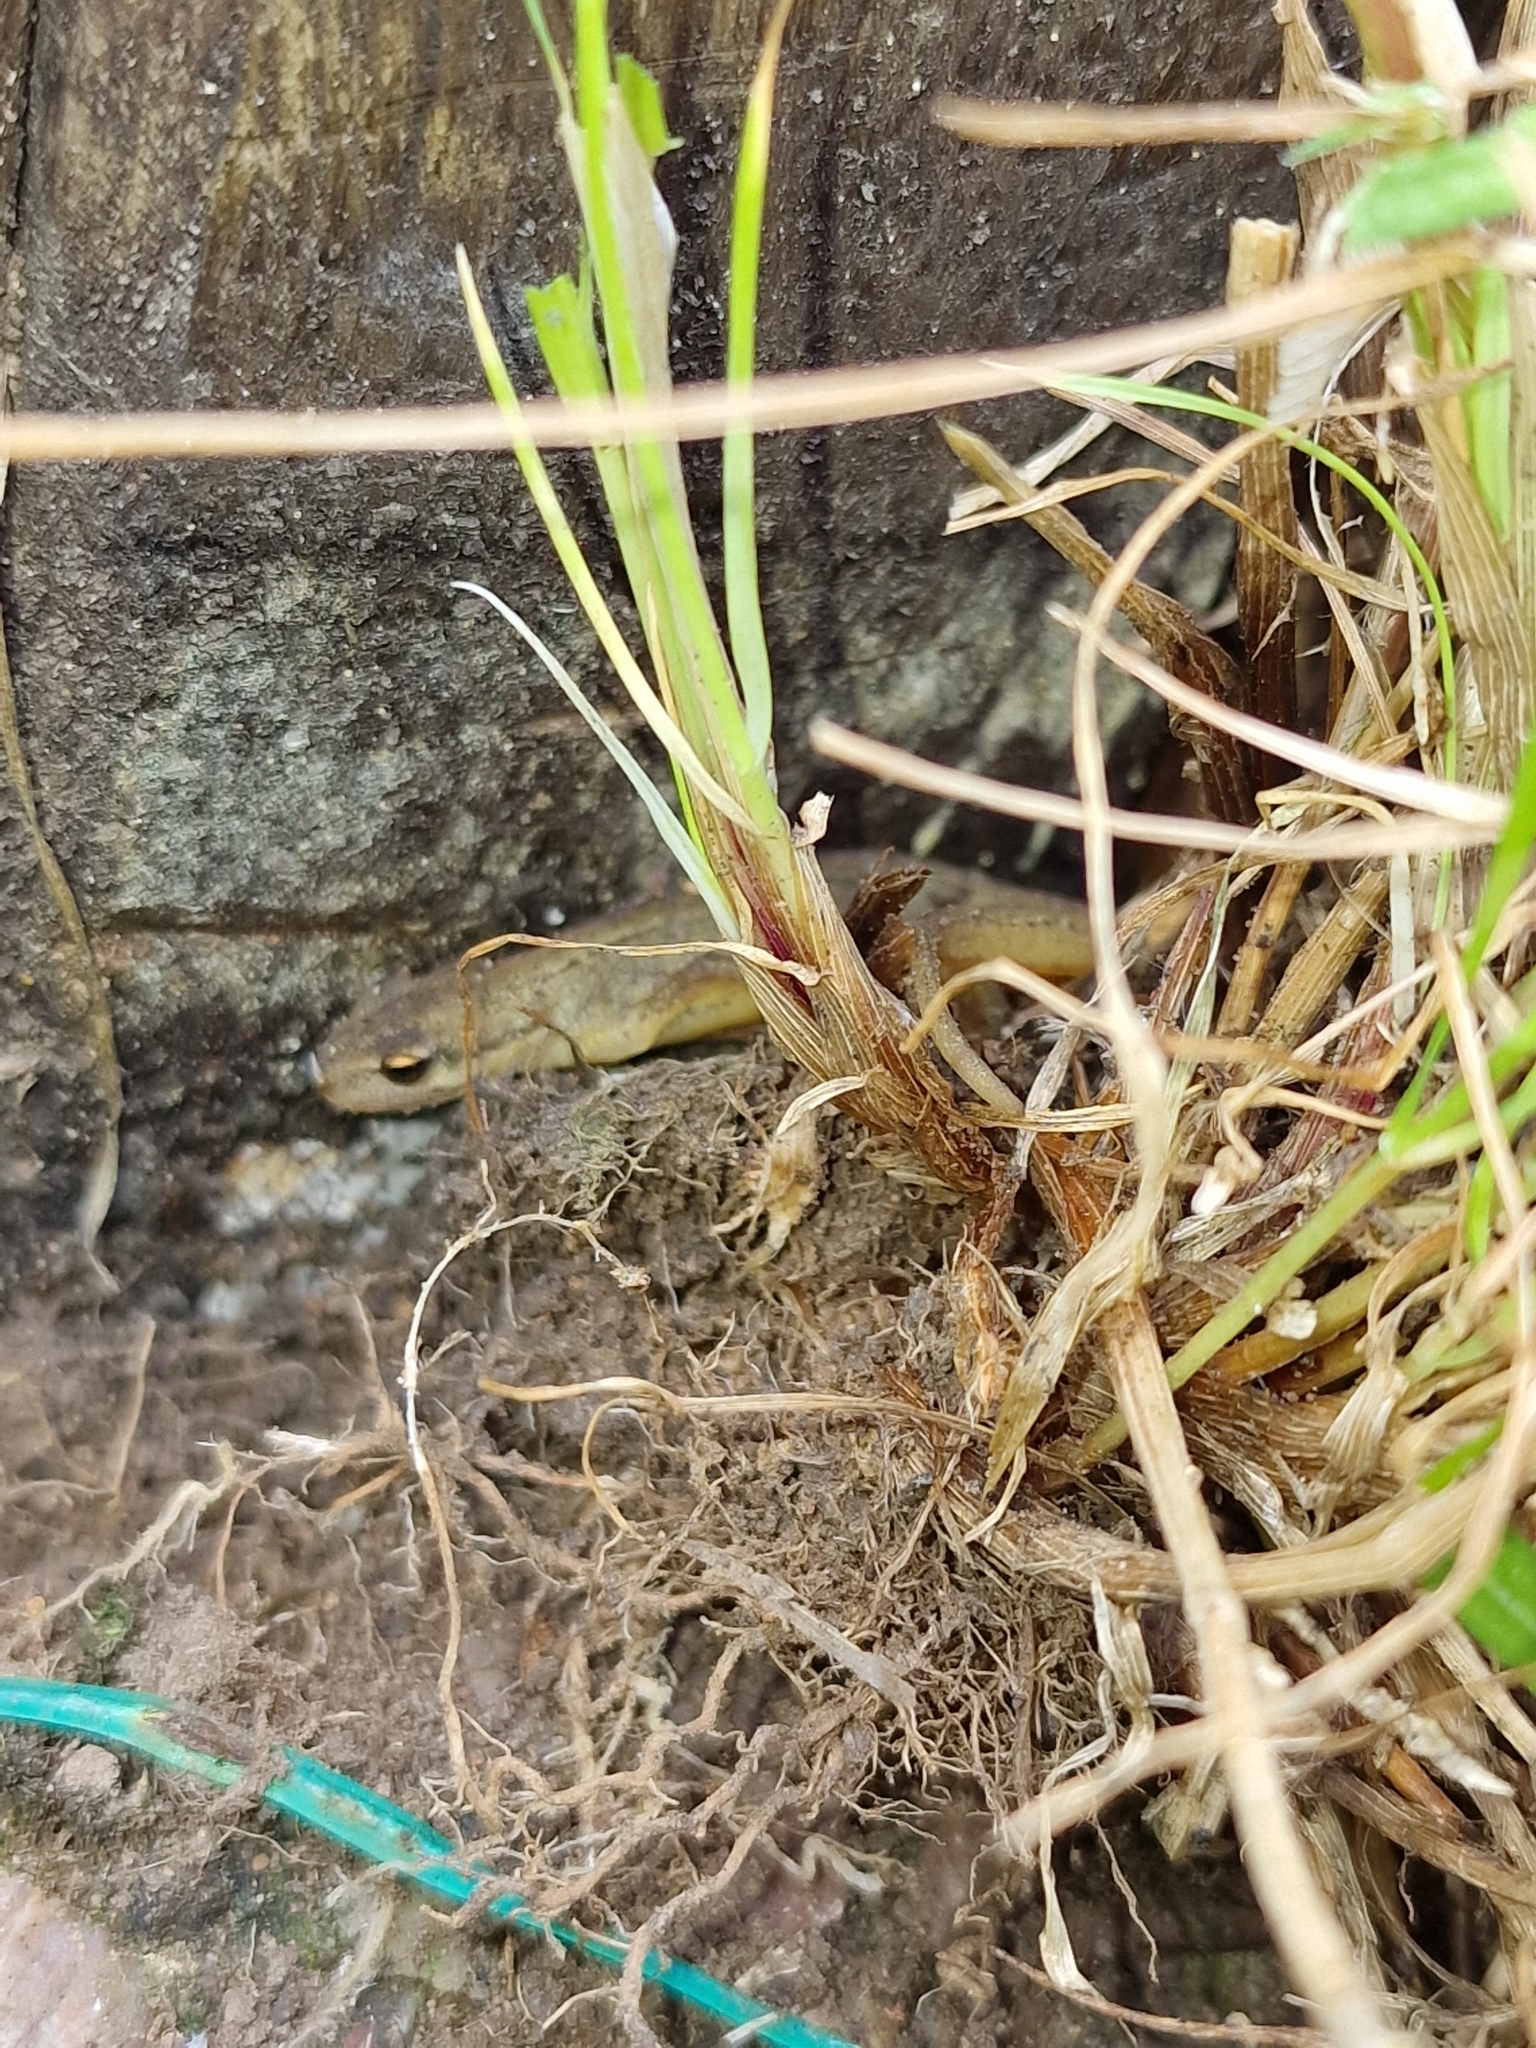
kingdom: Animalia
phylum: Chordata
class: Amphibia
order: Caudata
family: Salamandridae
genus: Lissotriton
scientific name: Lissotriton vulgaris
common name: Smooth newt
